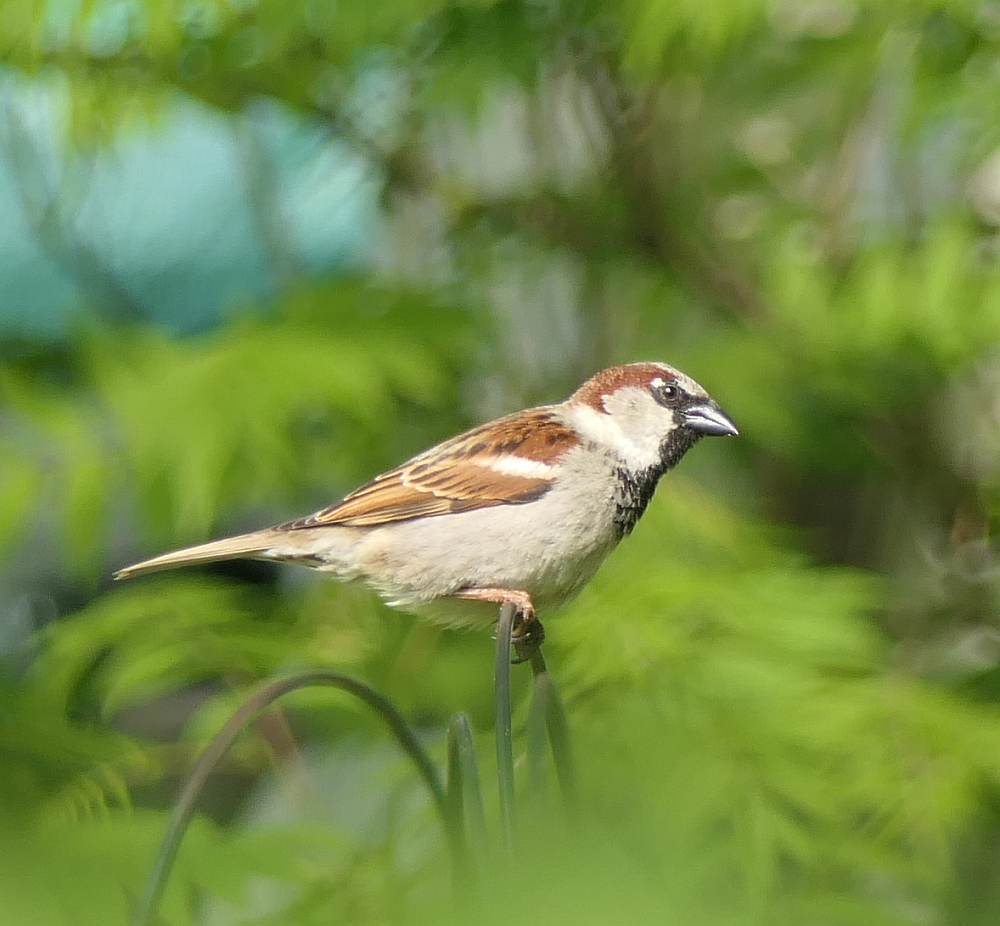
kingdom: Animalia
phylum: Chordata
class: Aves
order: Passeriformes
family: Passeridae
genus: Passer
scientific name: Passer domesticus
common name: House sparrow
